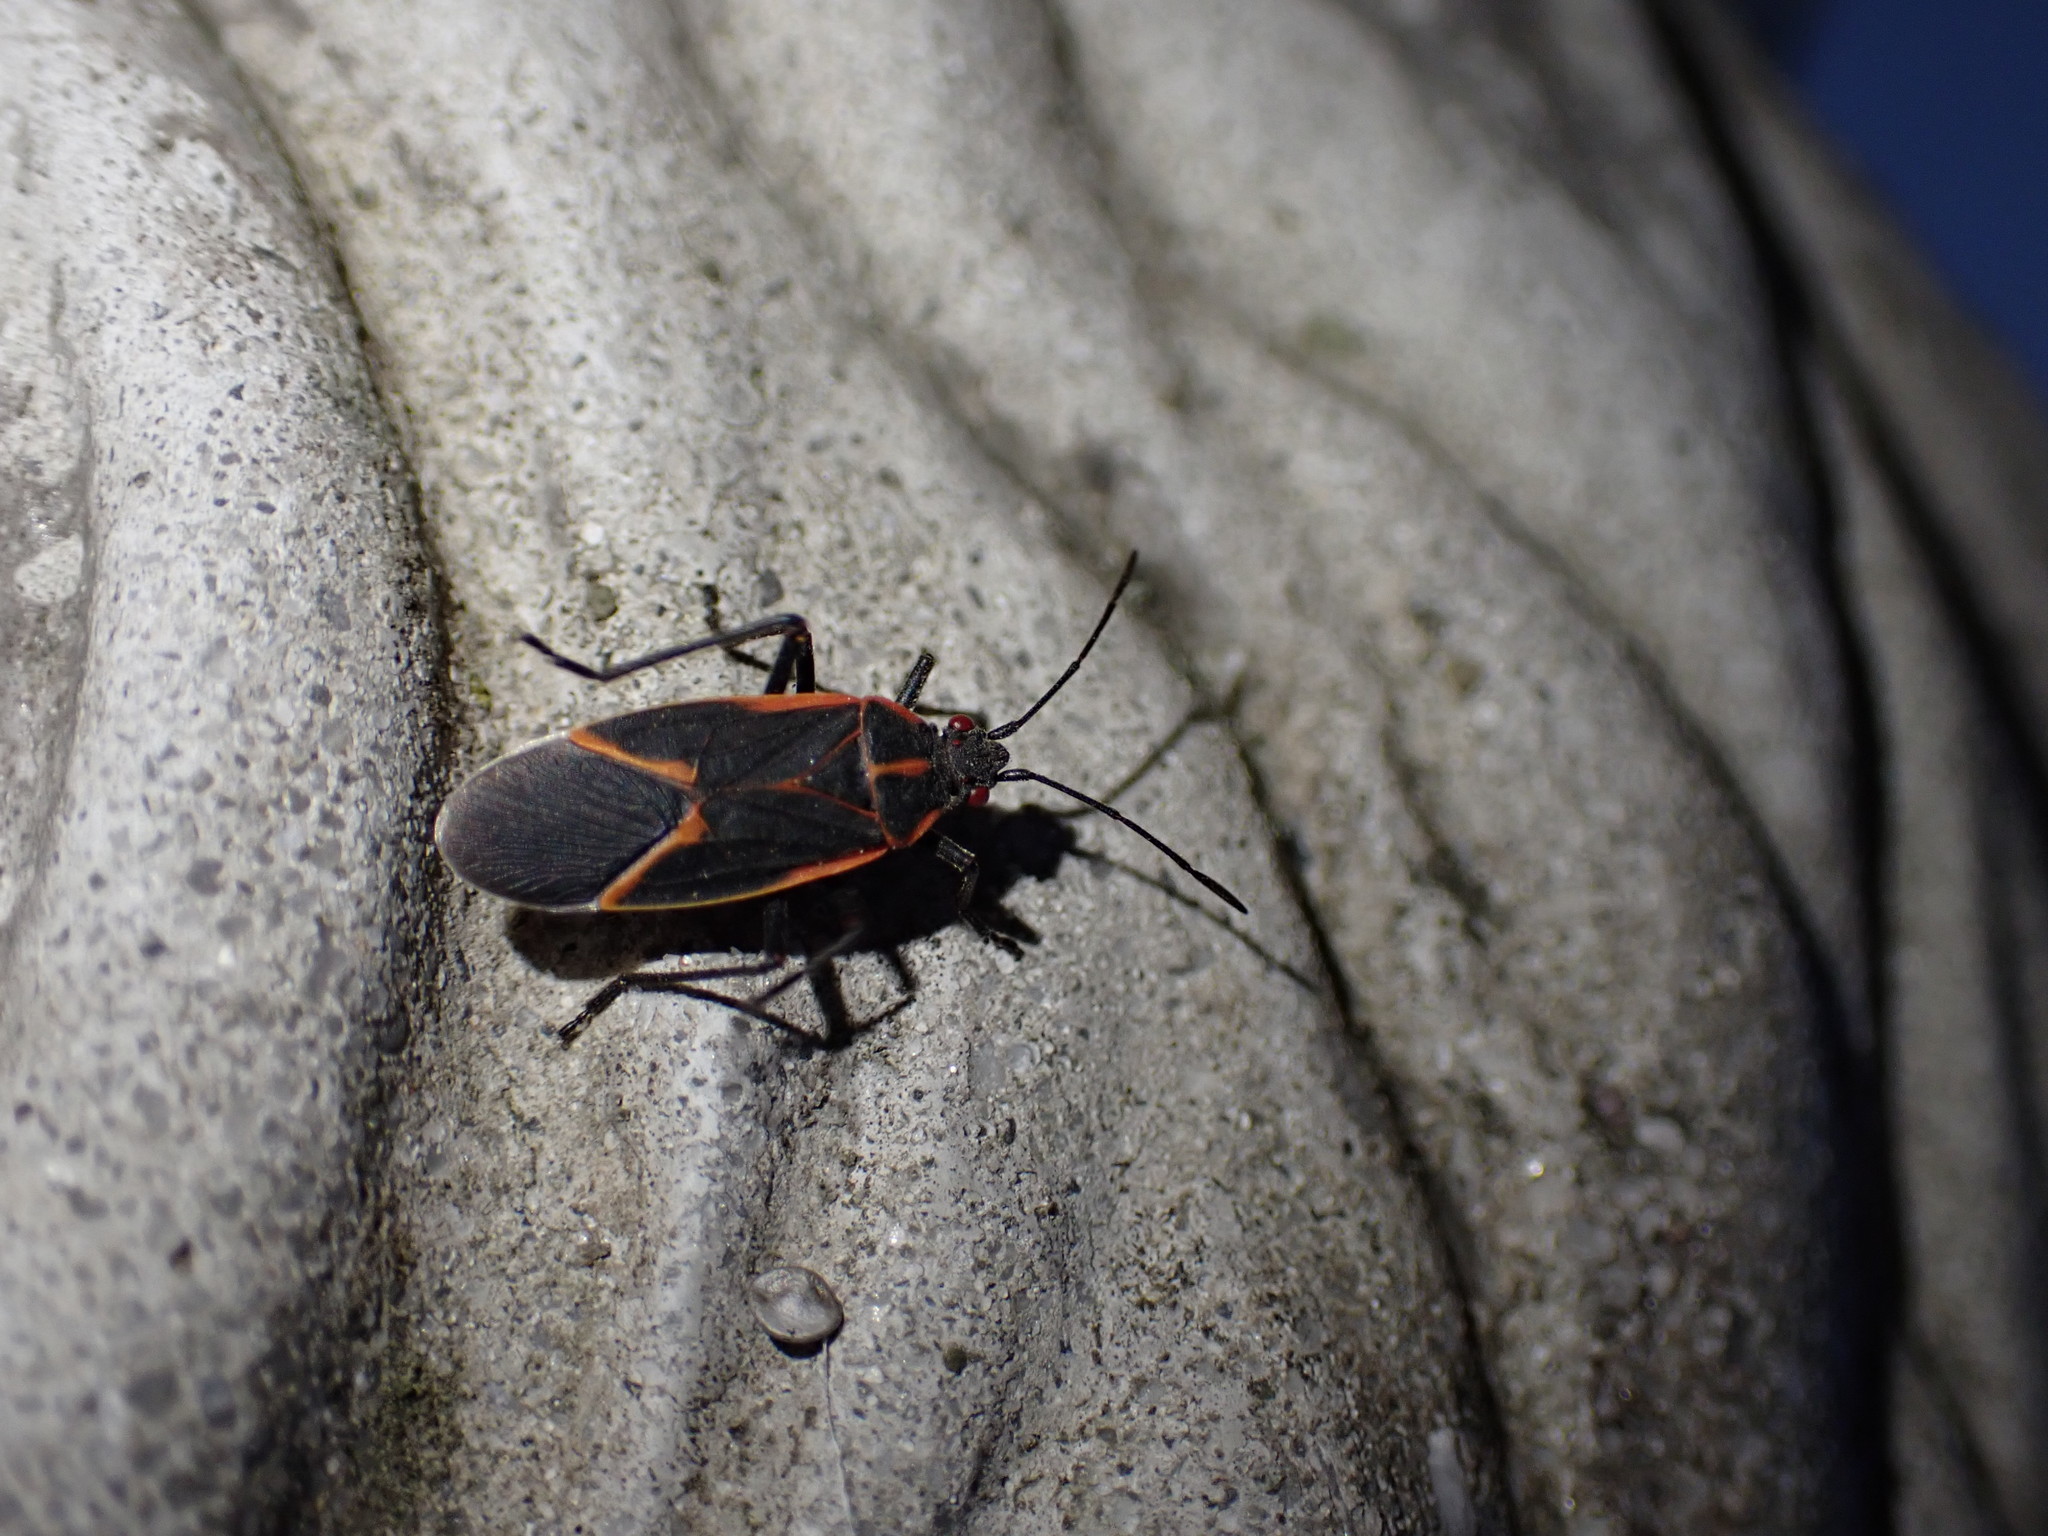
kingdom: Animalia
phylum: Arthropoda
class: Insecta
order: Hemiptera
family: Rhopalidae
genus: Boisea
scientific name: Boisea trivittata
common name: Boxelder bug
